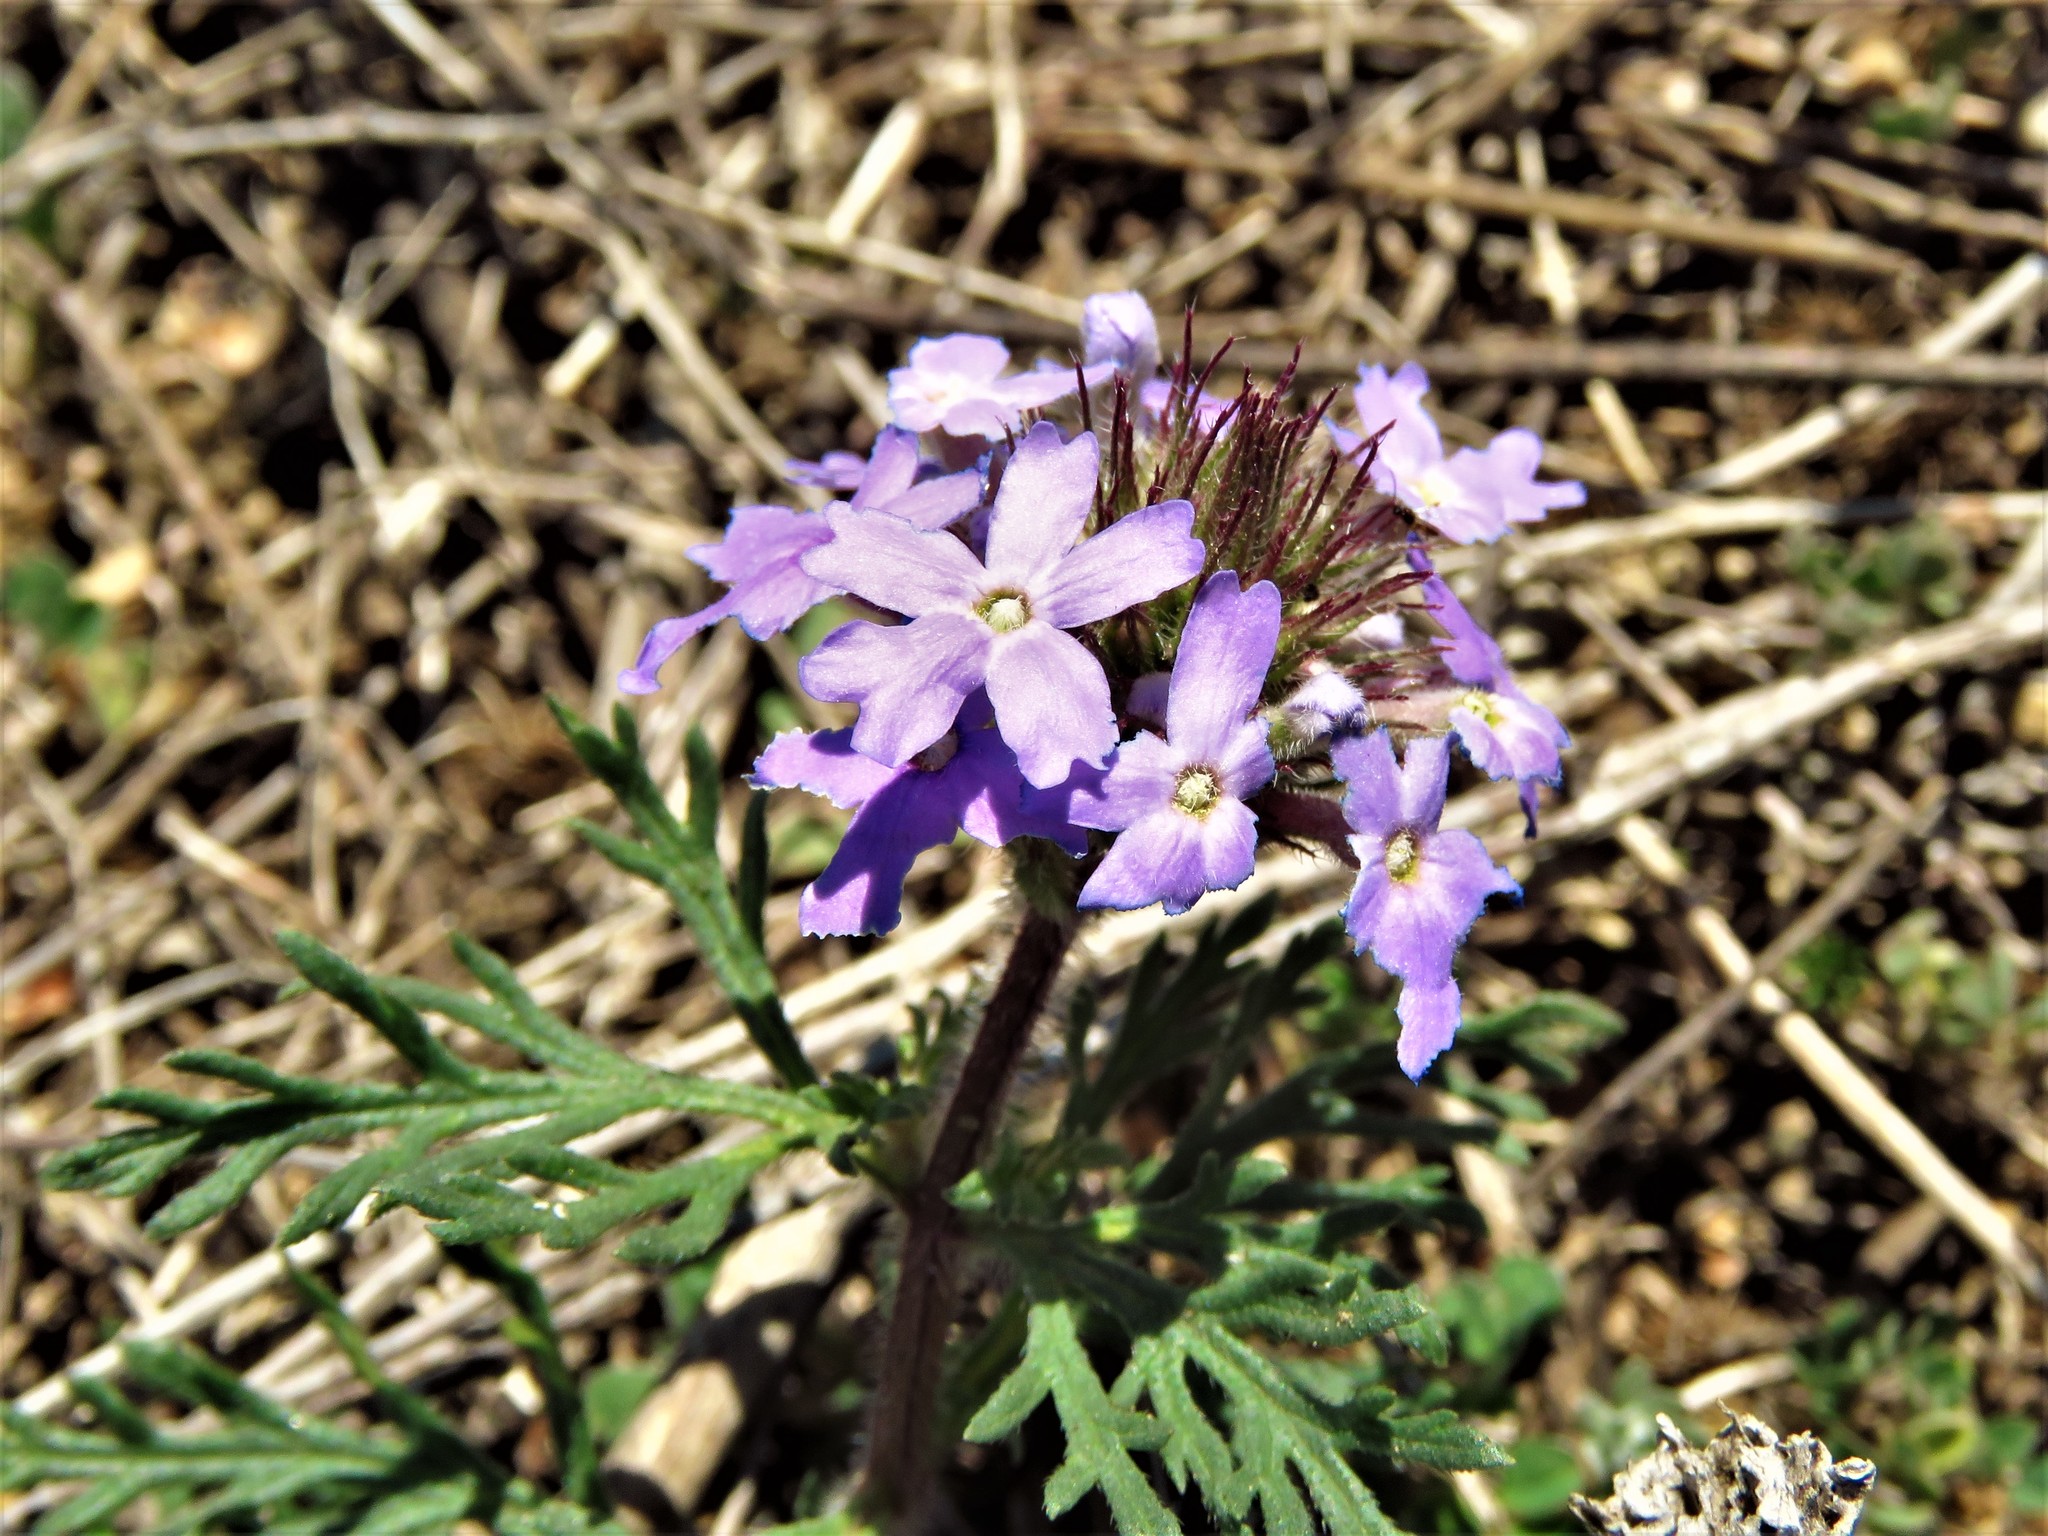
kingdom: Plantae
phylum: Tracheophyta
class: Magnoliopsida
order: Lamiales
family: Verbenaceae
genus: Verbena
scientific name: Verbena bipinnatifida
